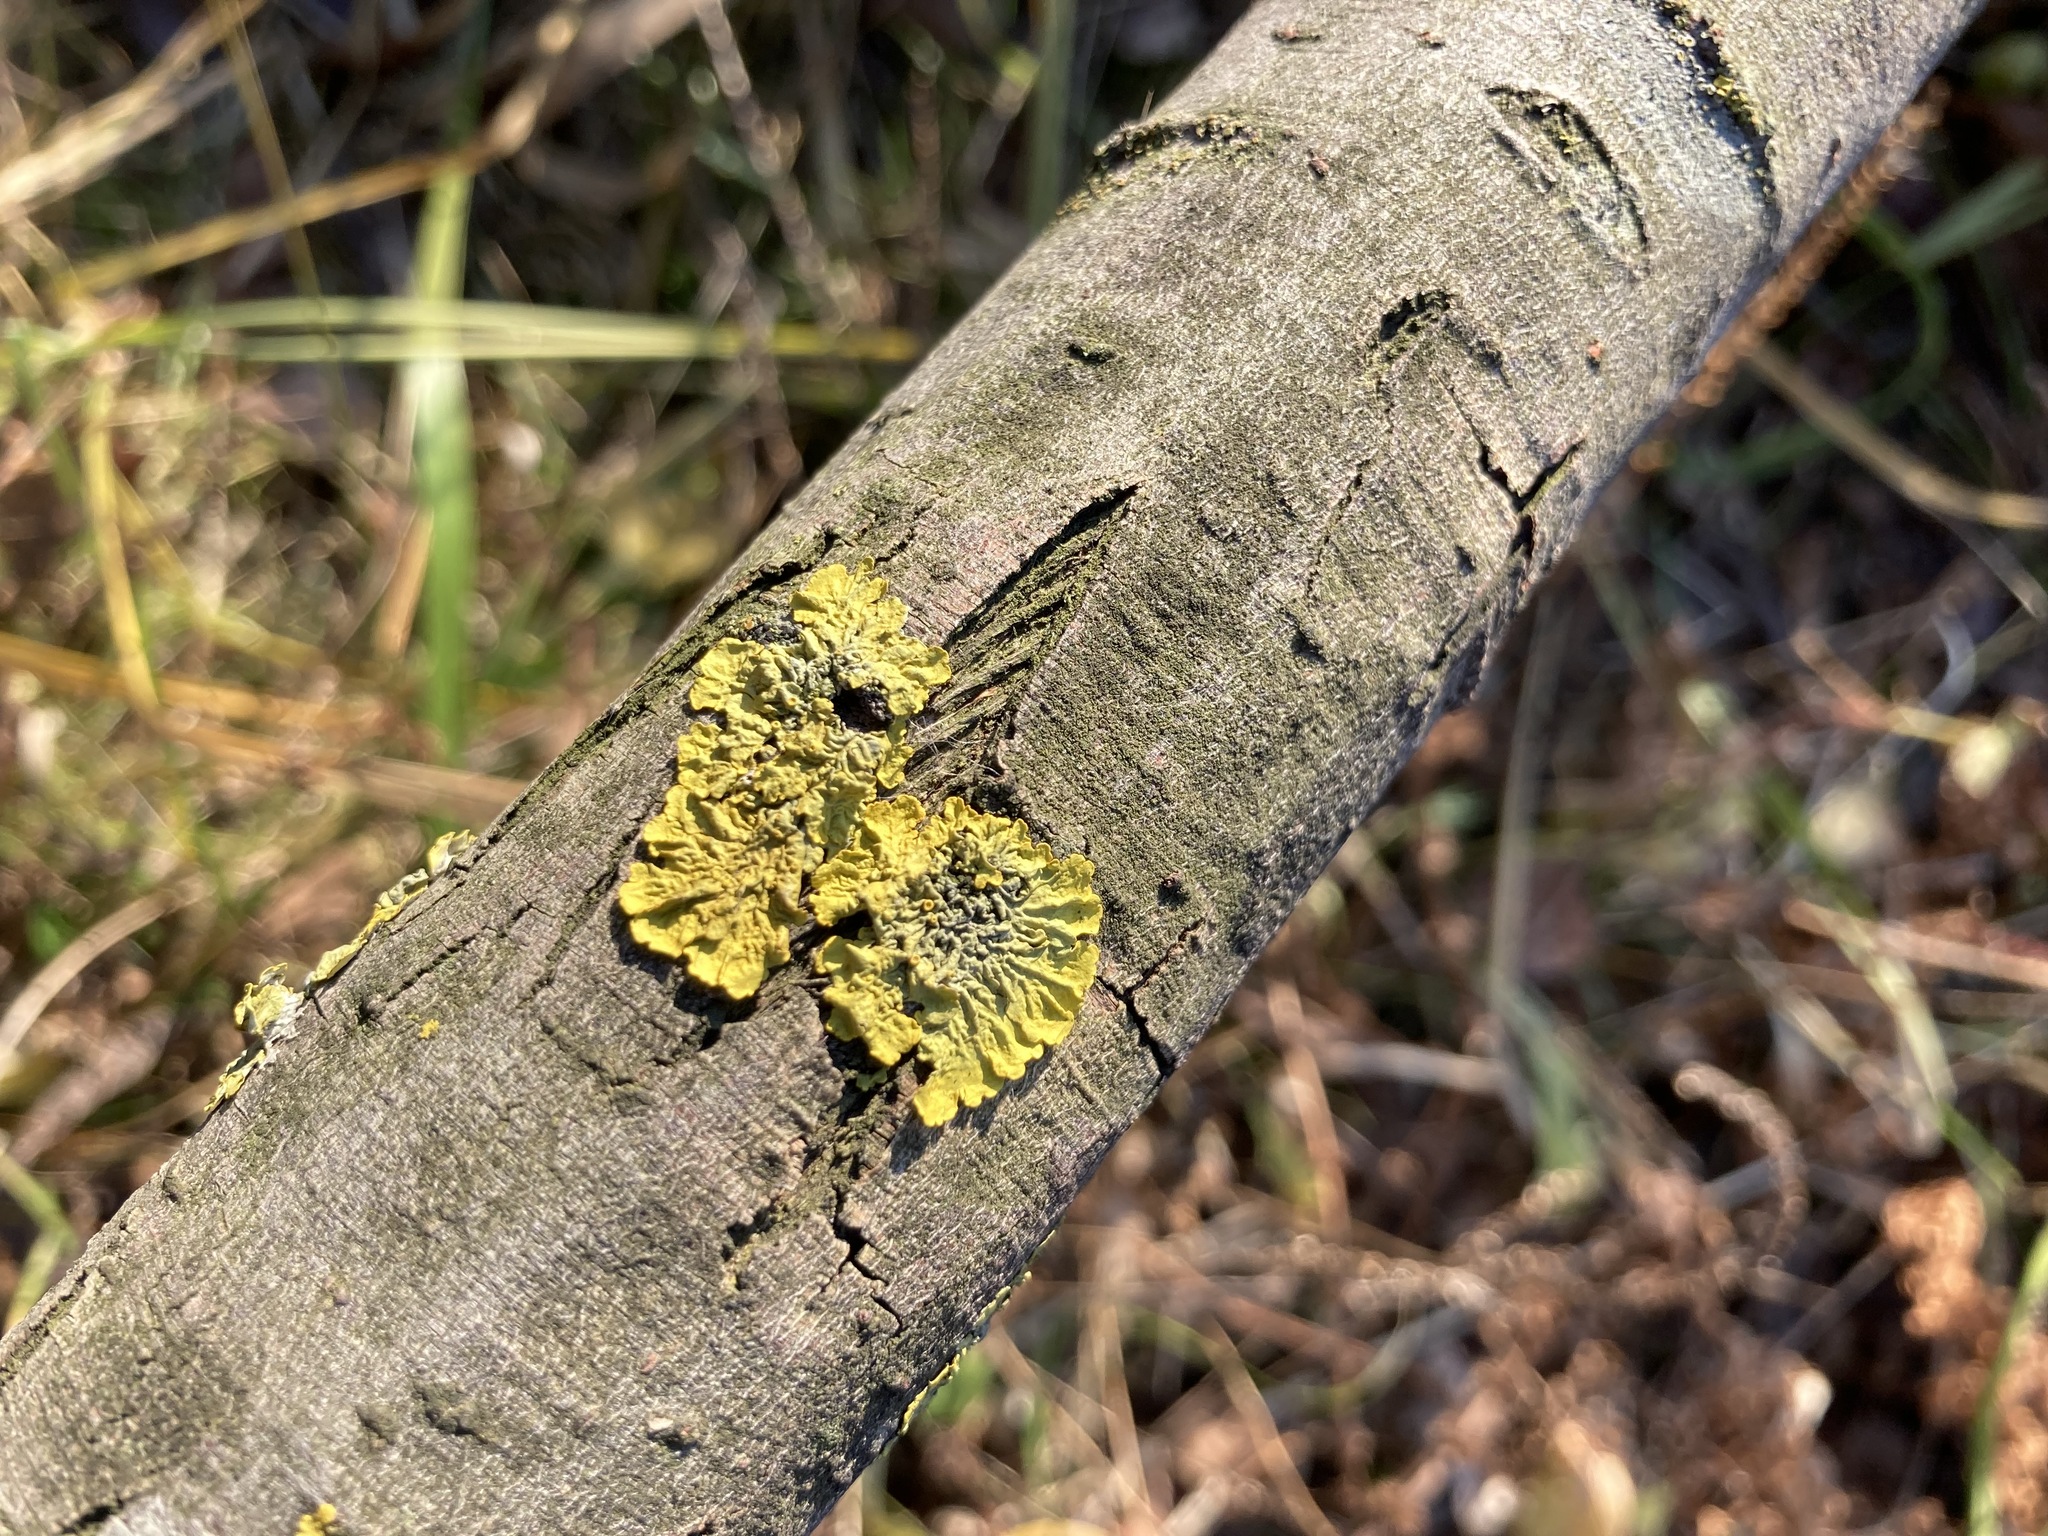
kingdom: Fungi
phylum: Ascomycota
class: Lecanoromycetes
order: Teloschistales
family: Teloschistaceae
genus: Xanthoria
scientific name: Xanthoria parietina
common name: Common orange lichen
